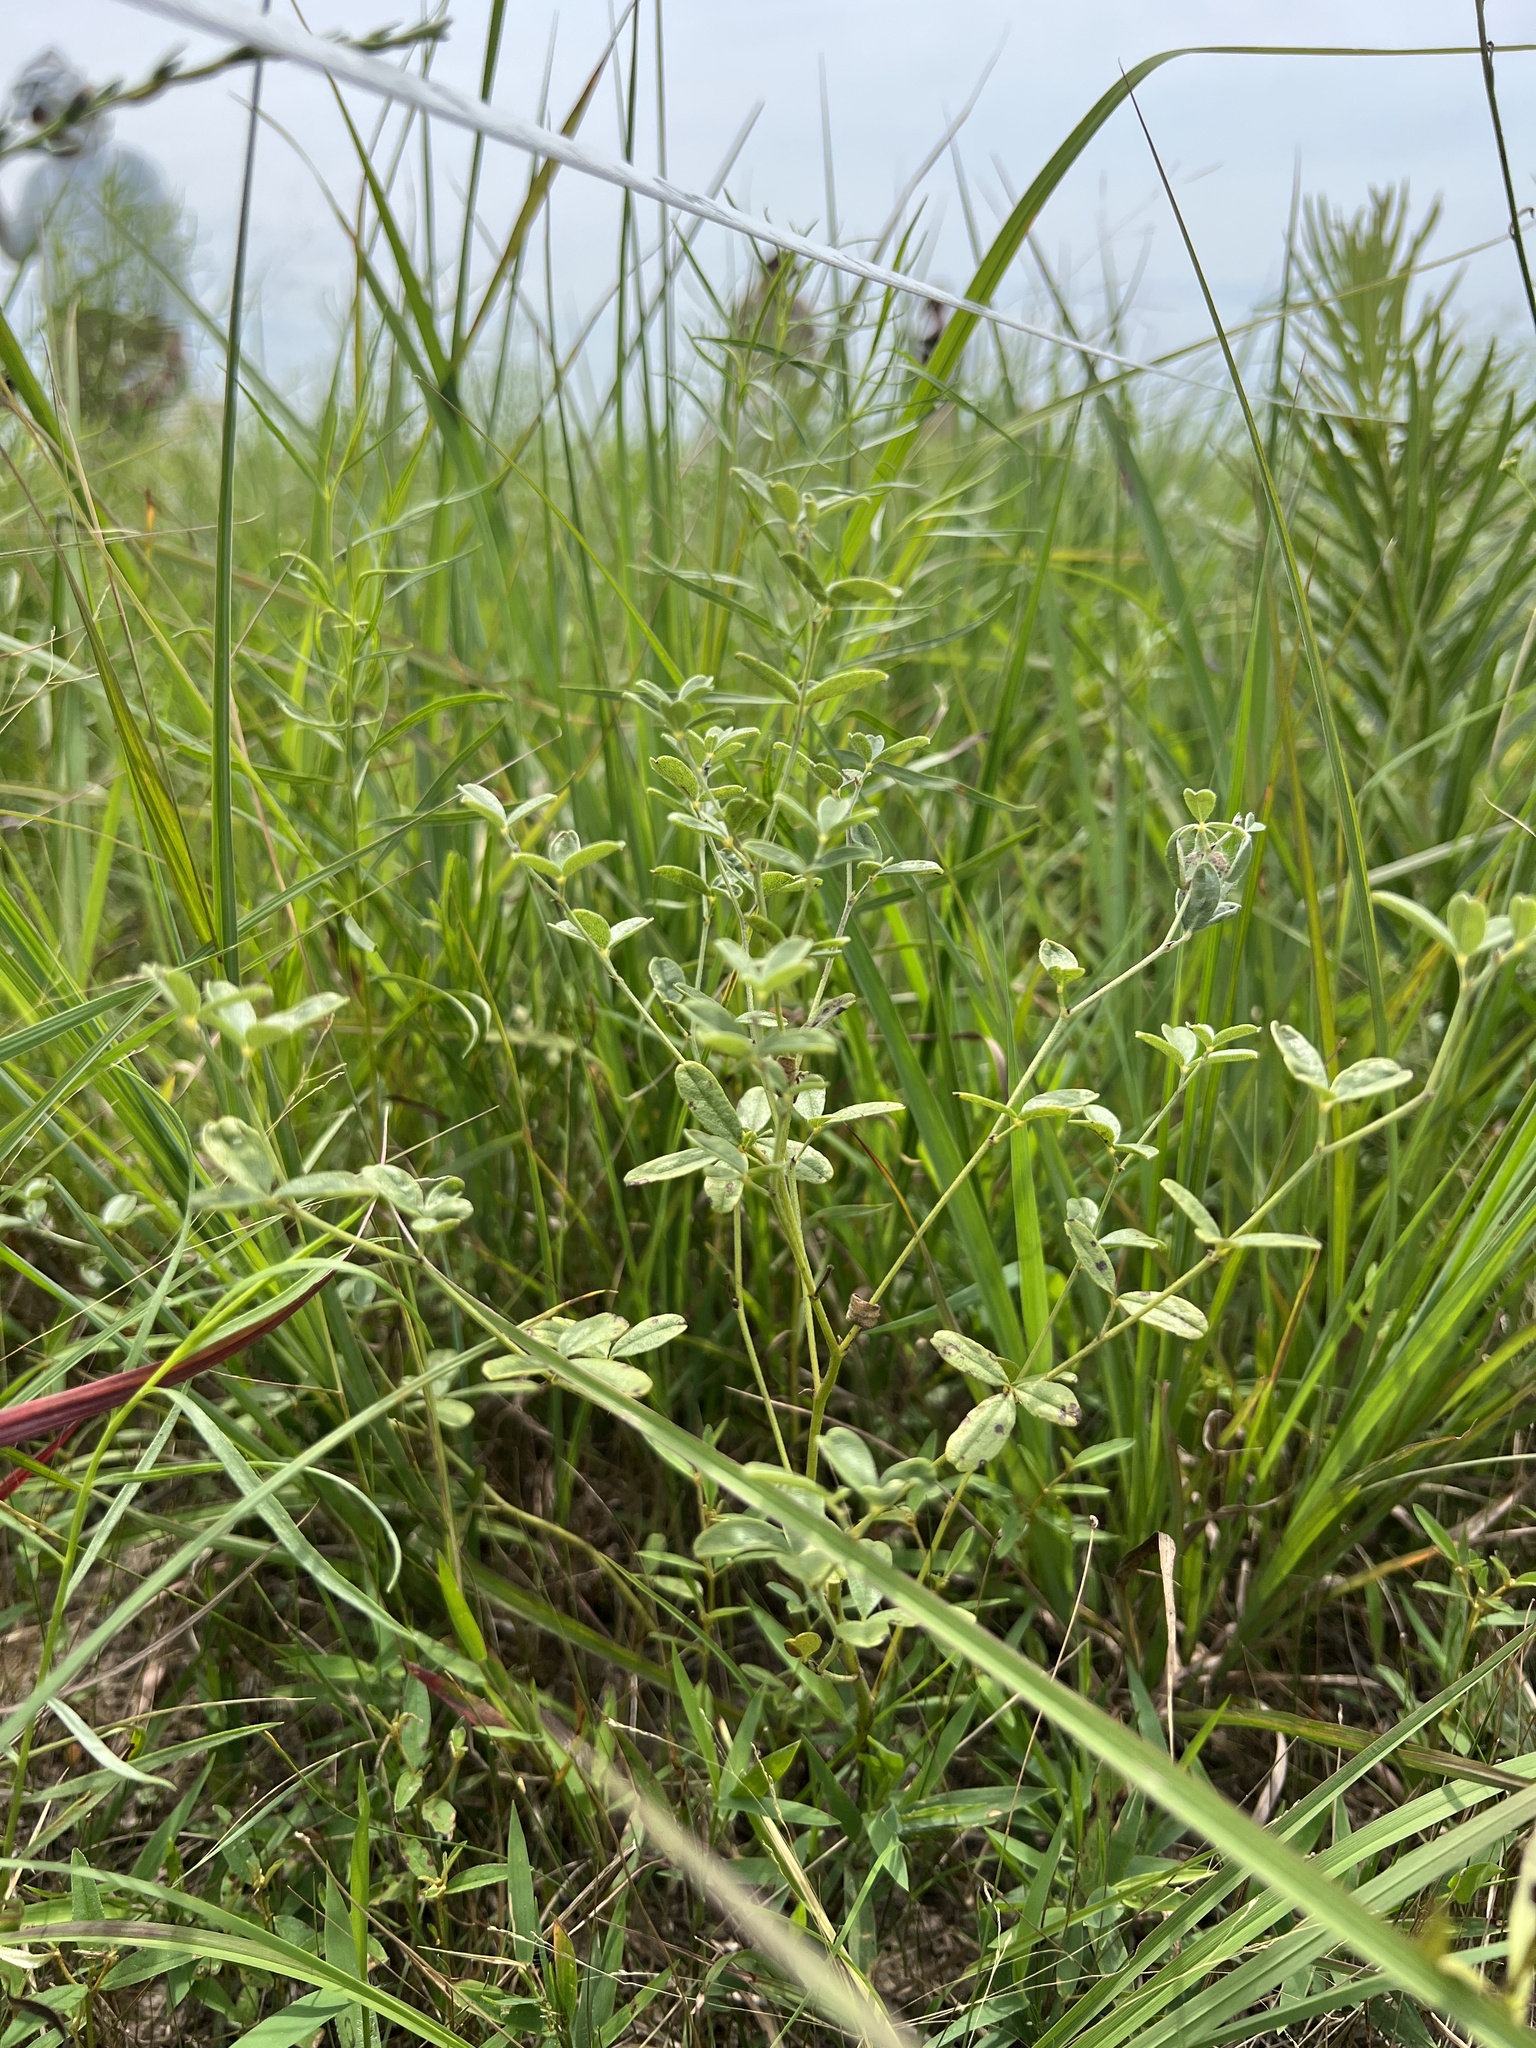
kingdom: Plantae
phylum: Tracheophyta
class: Magnoliopsida
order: Fabales
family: Fabaceae
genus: Pediomelum
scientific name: Pediomelum tenuiflorum
